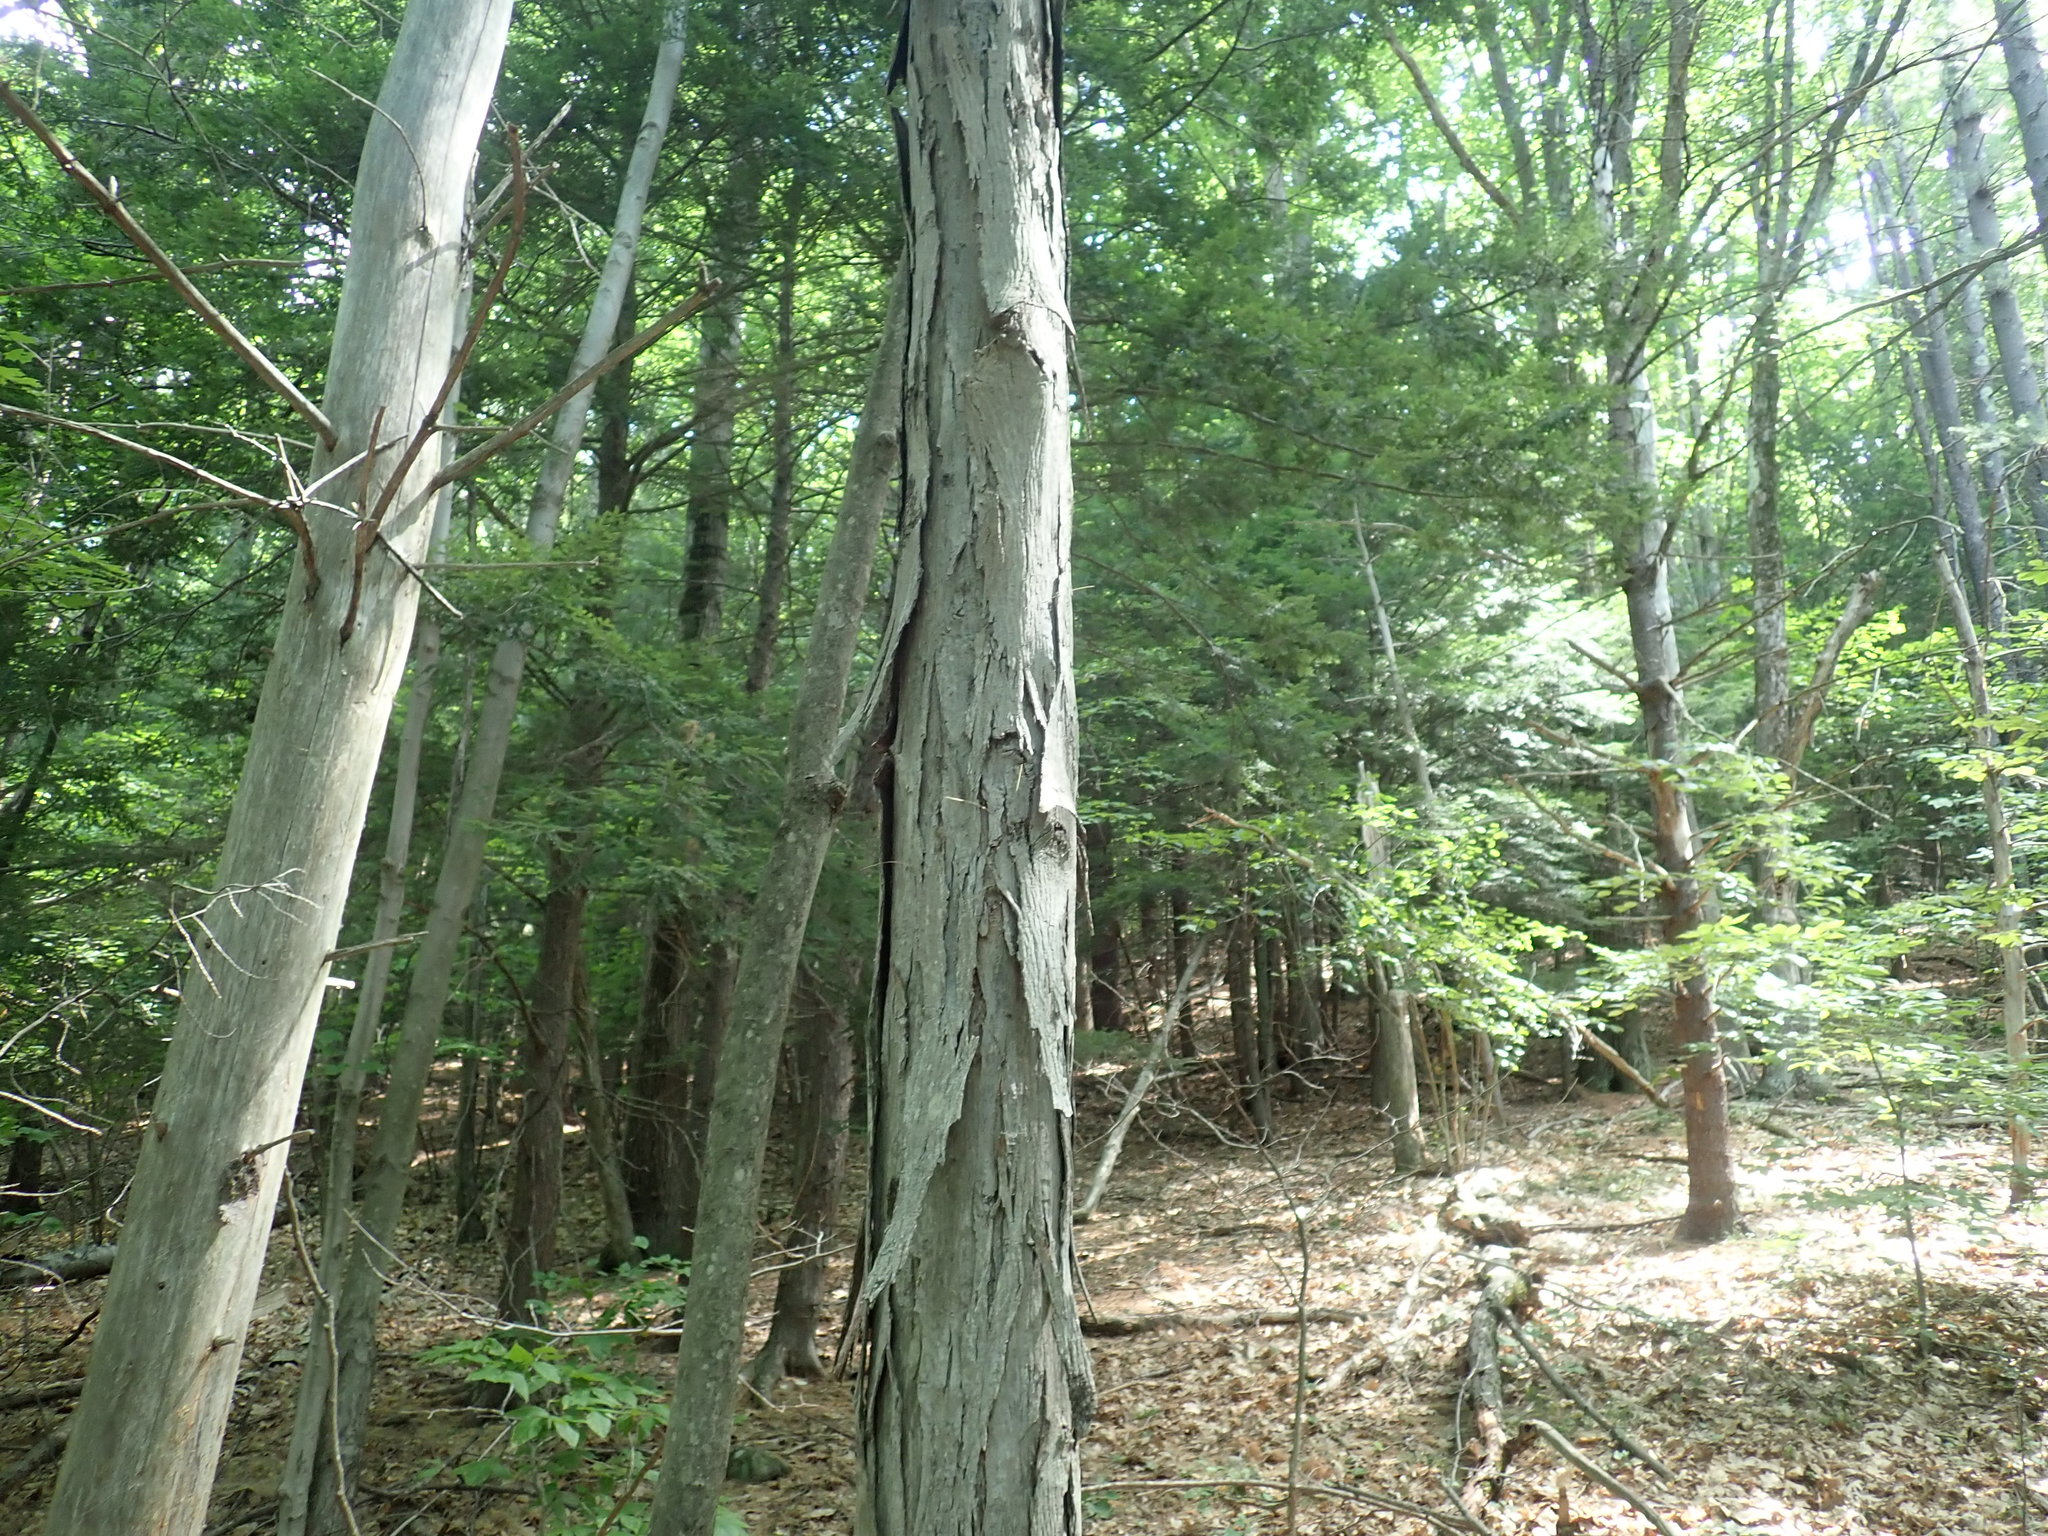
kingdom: Plantae
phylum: Tracheophyta
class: Magnoliopsida
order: Fagales
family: Juglandaceae
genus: Carya
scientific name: Carya ovata
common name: Shagbark hickory
